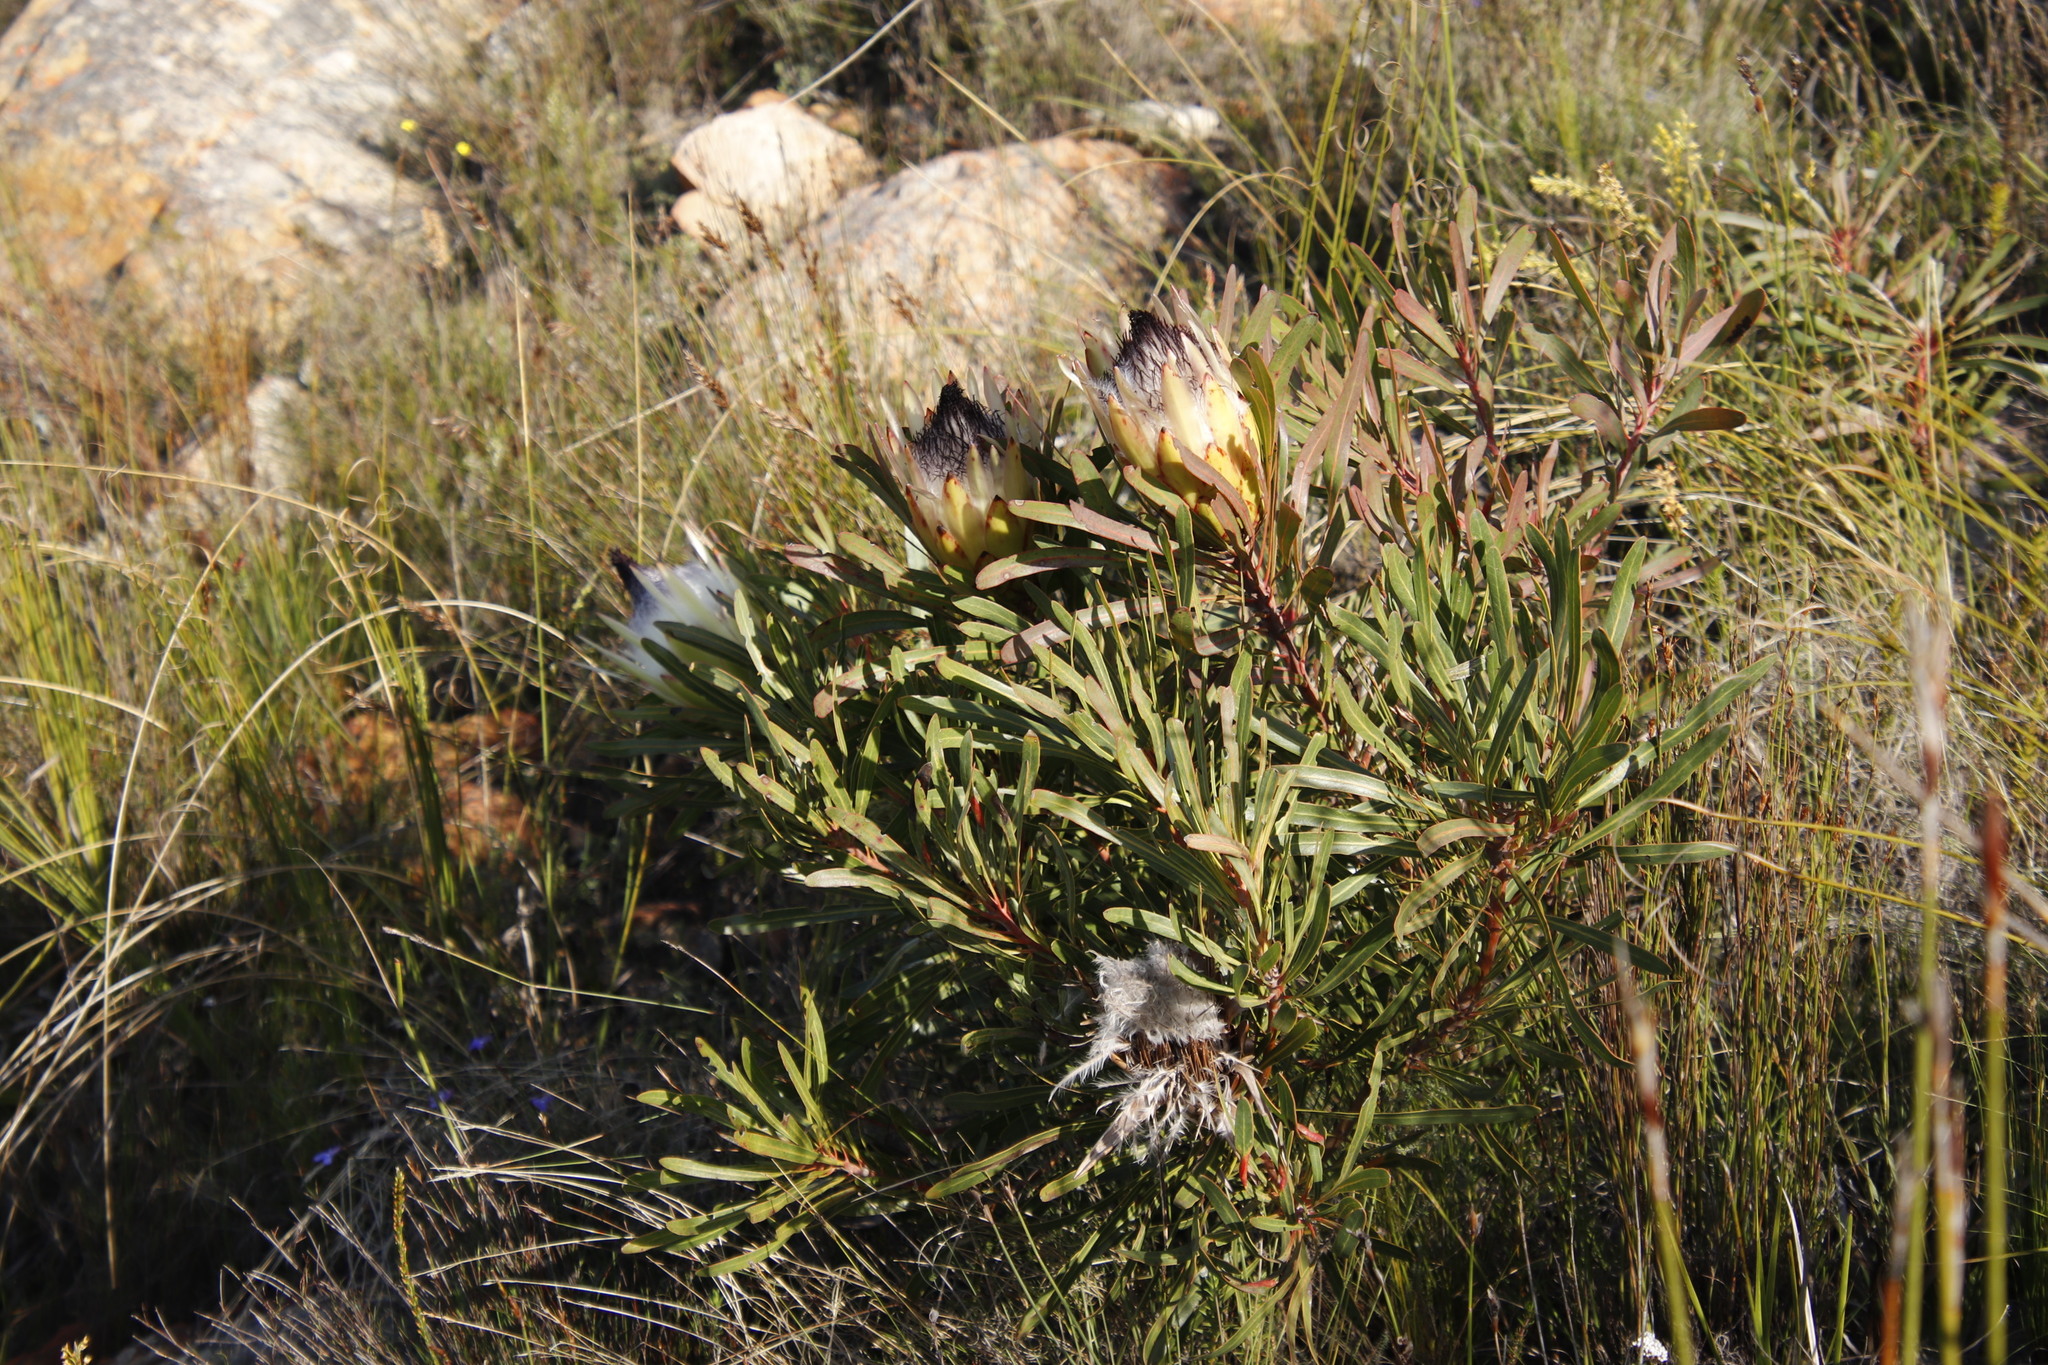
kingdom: Plantae
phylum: Tracheophyta
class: Magnoliopsida
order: Proteales
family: Proteaceae
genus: Protea
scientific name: Protea longifolia
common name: Long-leaf sugarbush
